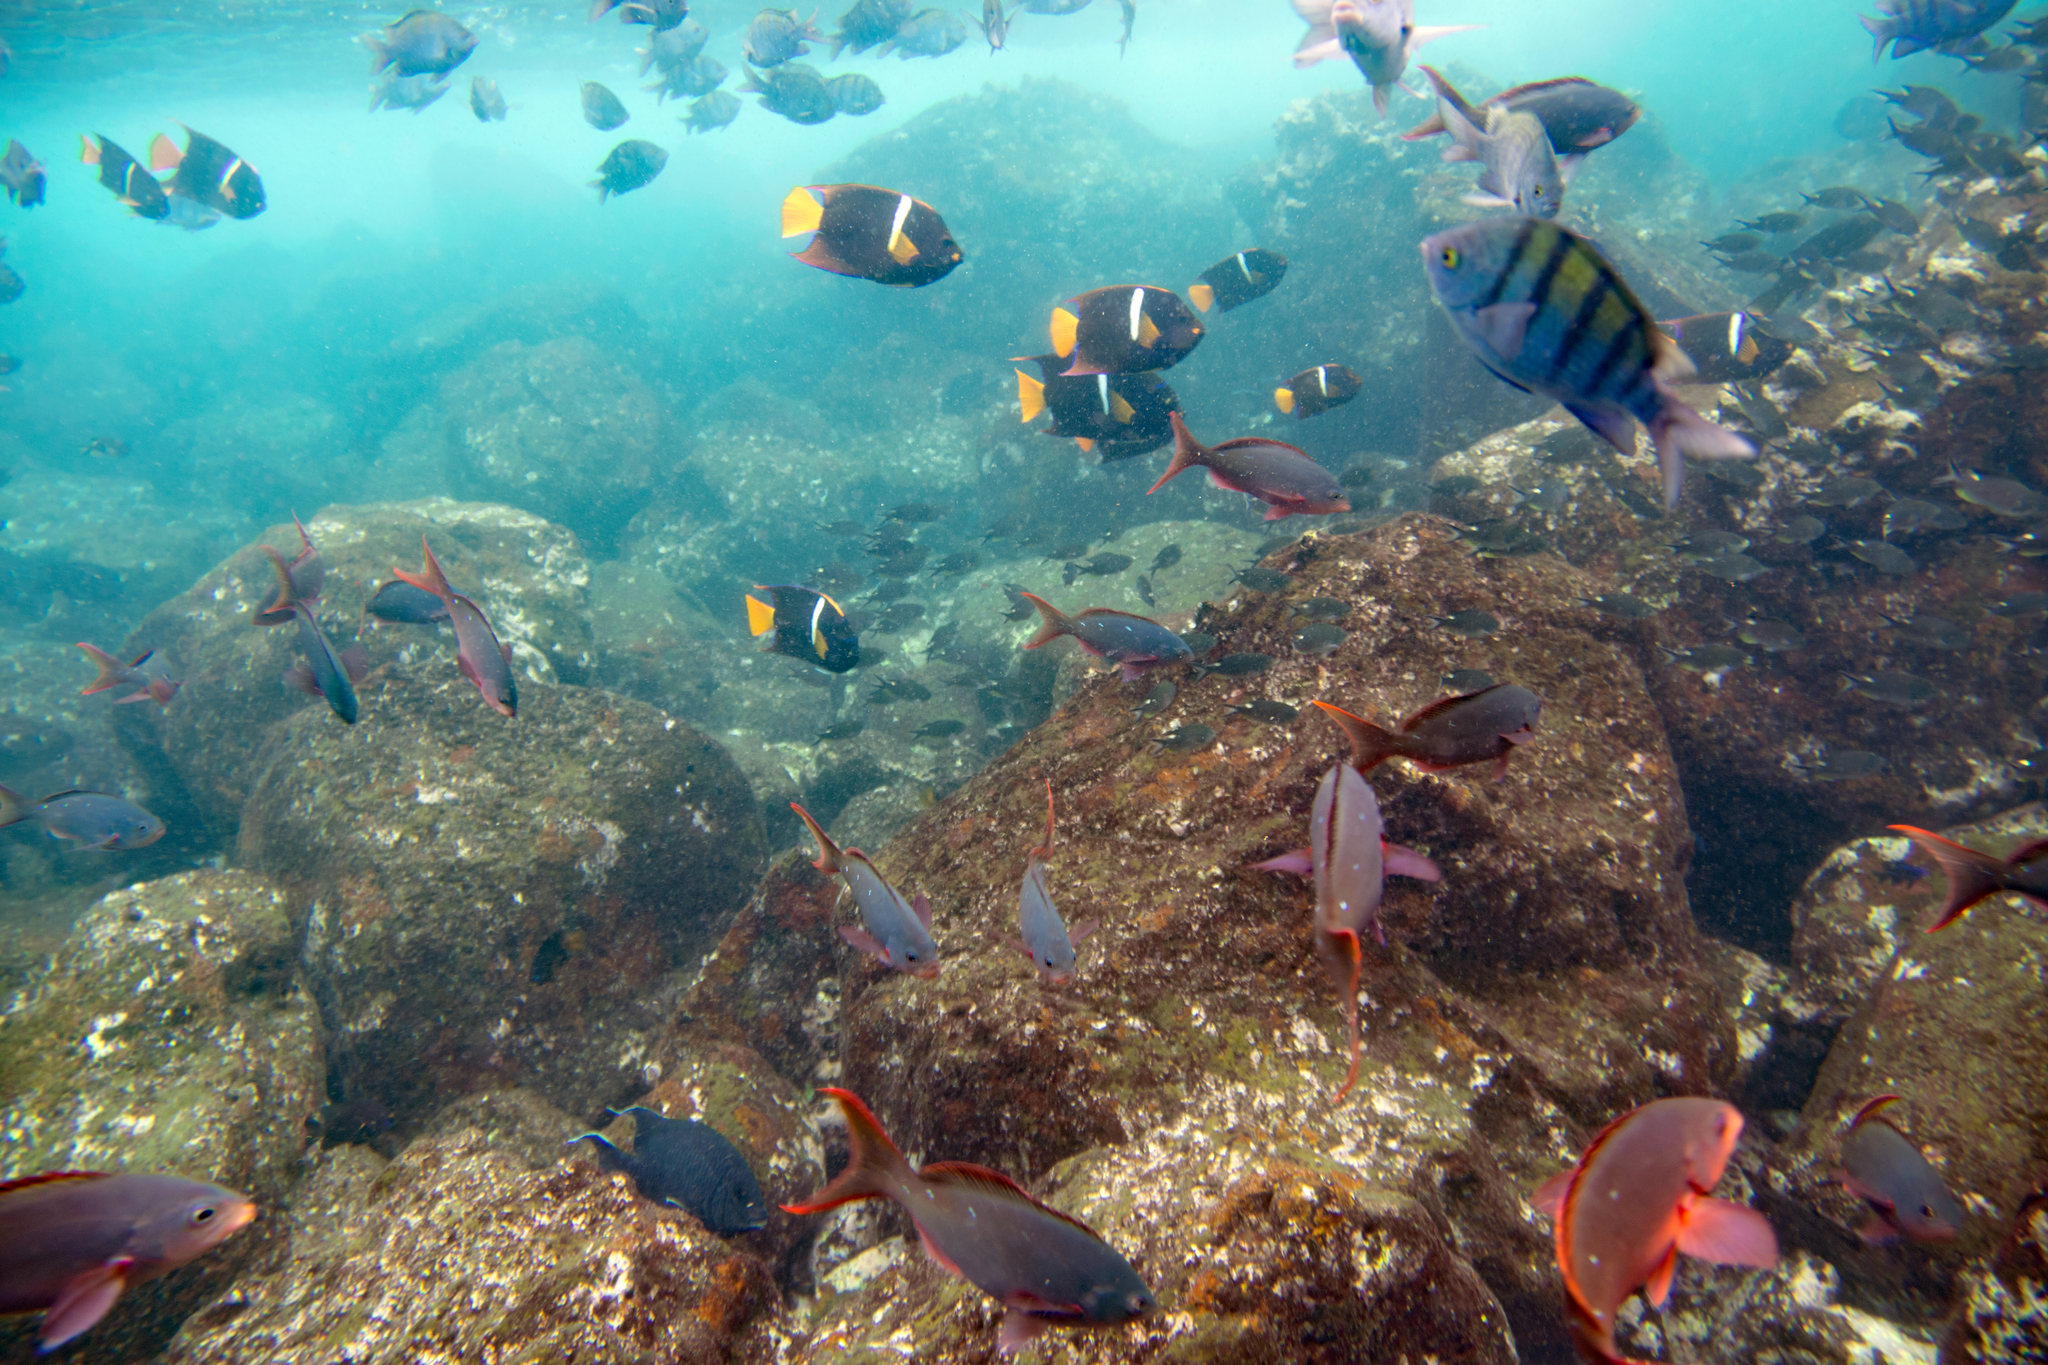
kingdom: Animalia
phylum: Chordata
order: Perciformes
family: Pomacentridae
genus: Abudefduf
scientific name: Abudefduf troschelii
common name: Panamic sergeant major
